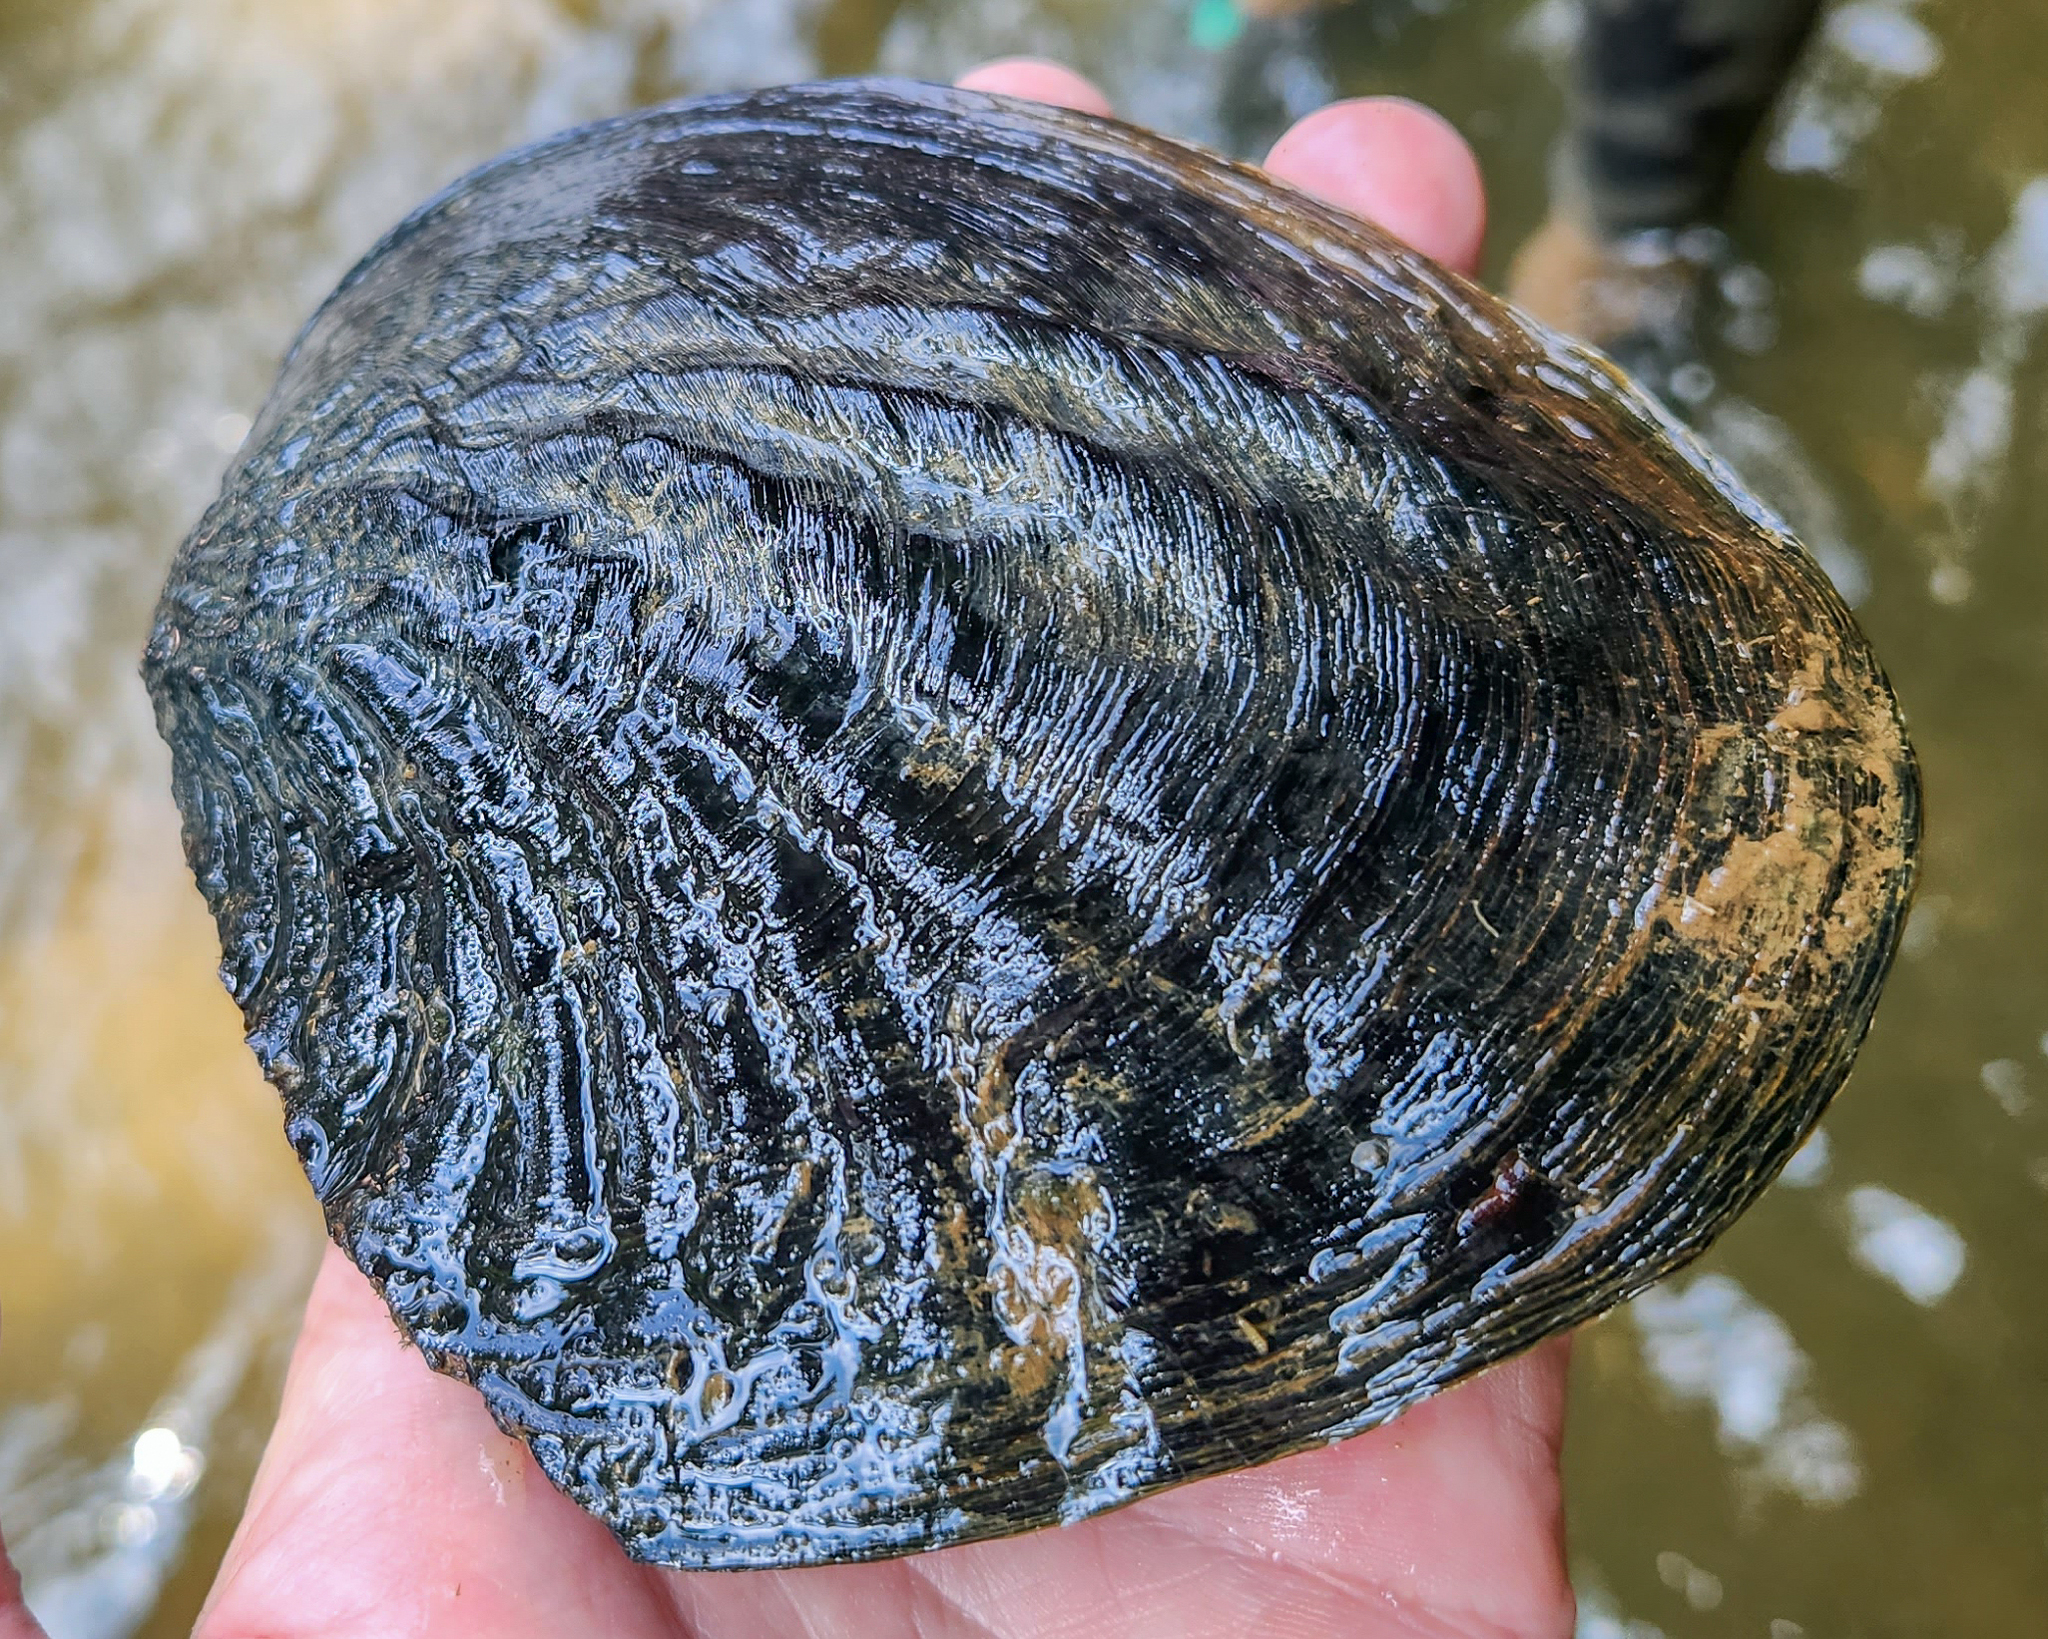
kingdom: Animalia
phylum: Mollusca
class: Bivalvia
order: Unionida
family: Unionidae
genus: Megalonaias
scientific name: Megalonaias nervosa
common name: Washboard
